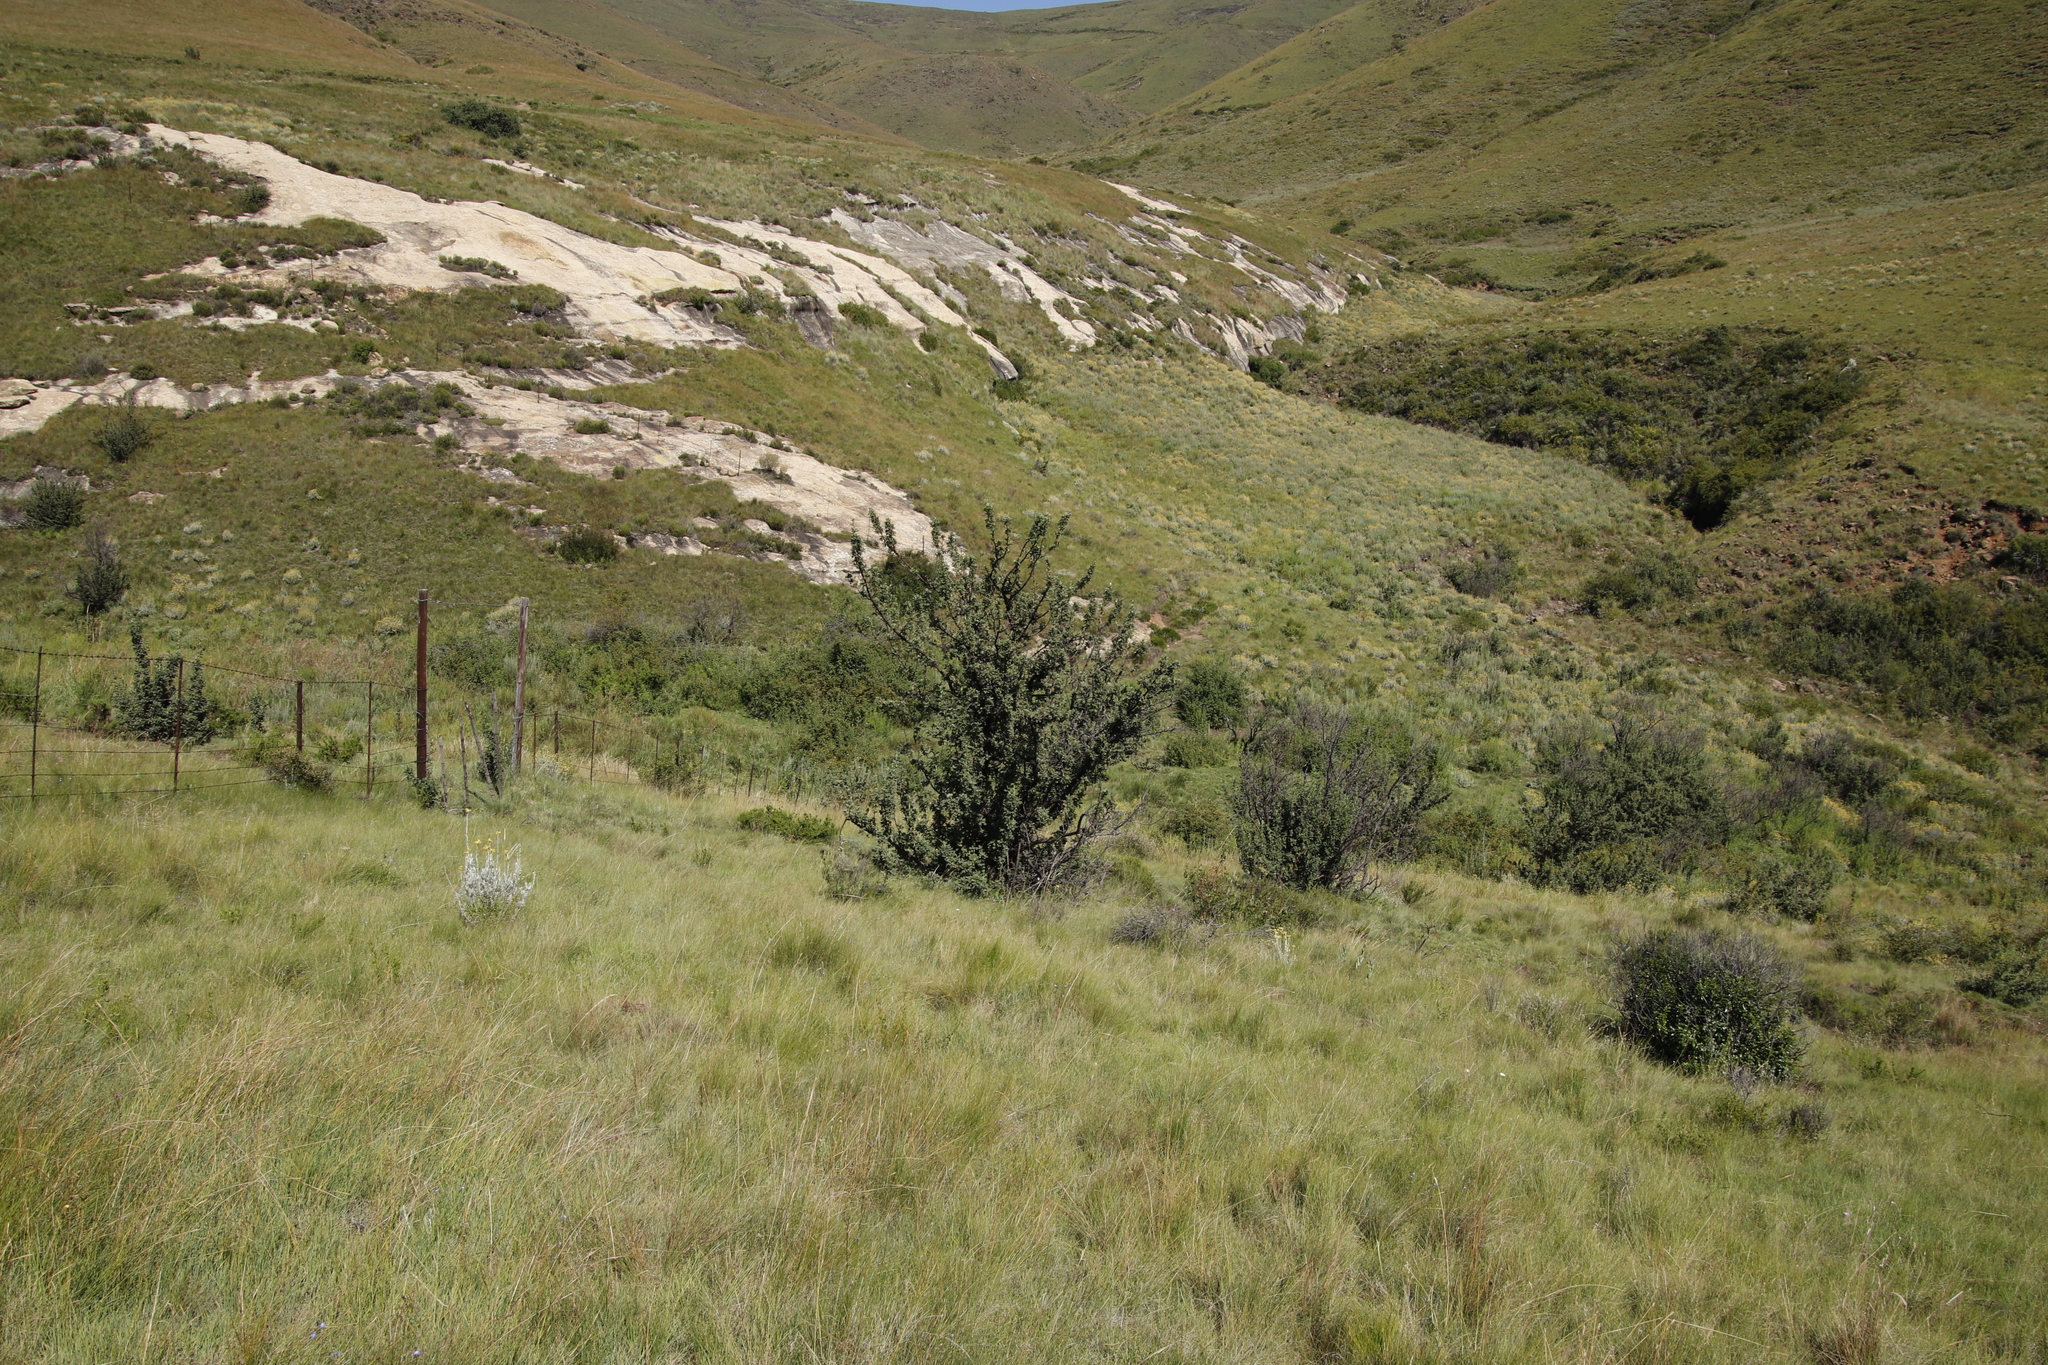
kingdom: Plantae
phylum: Tracheophyta
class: Magnoliopsida
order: Rosales
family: Rosaceae
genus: Leucosidea
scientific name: Leucosidea sericea
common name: Oldwood
